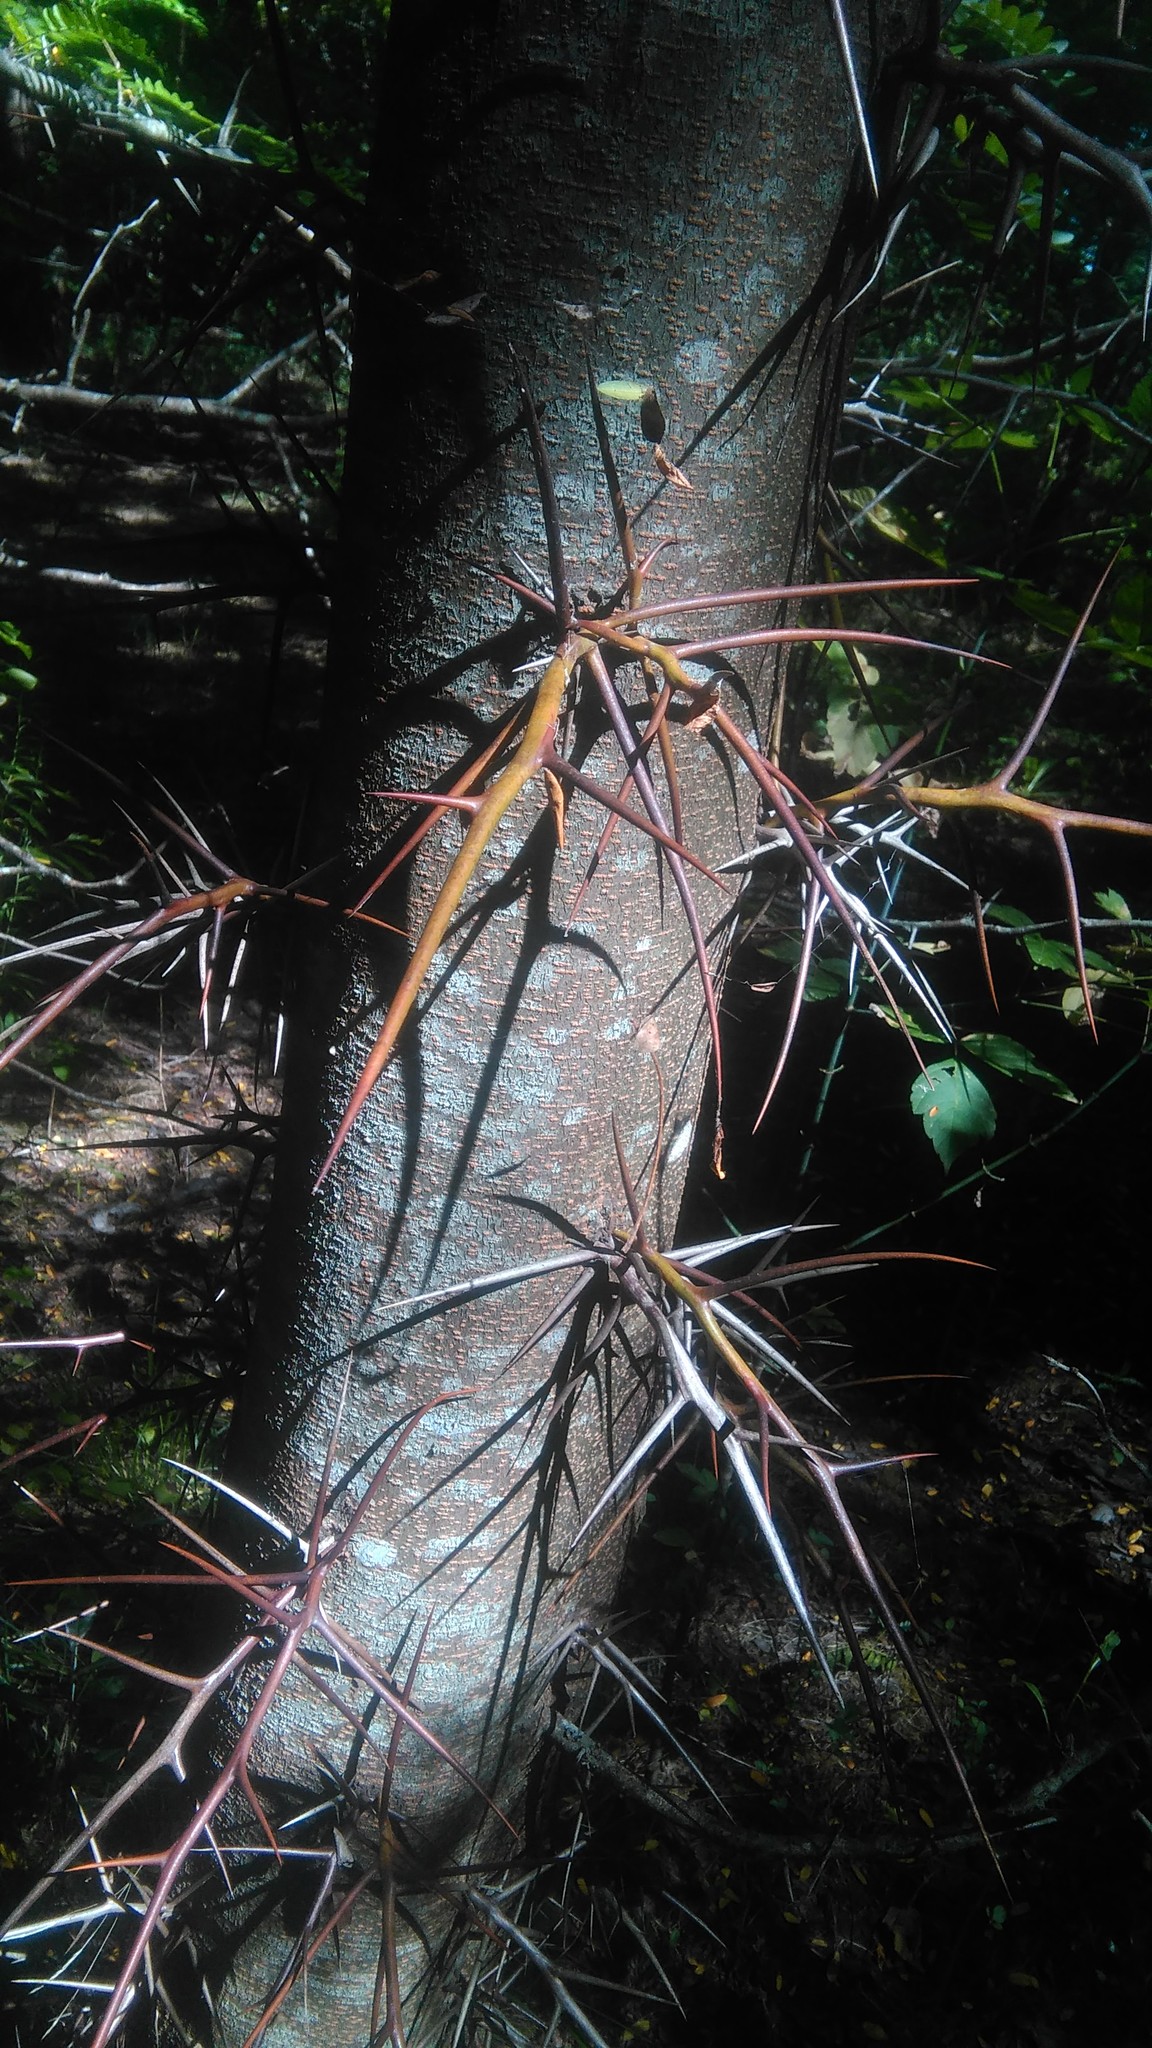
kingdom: Plantae
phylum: Tracheophyta
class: Magnoliopsida
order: Fabales
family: Fabaceae
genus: Gleditsia
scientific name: Gleditsia triacanthos
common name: Common honeylocust
